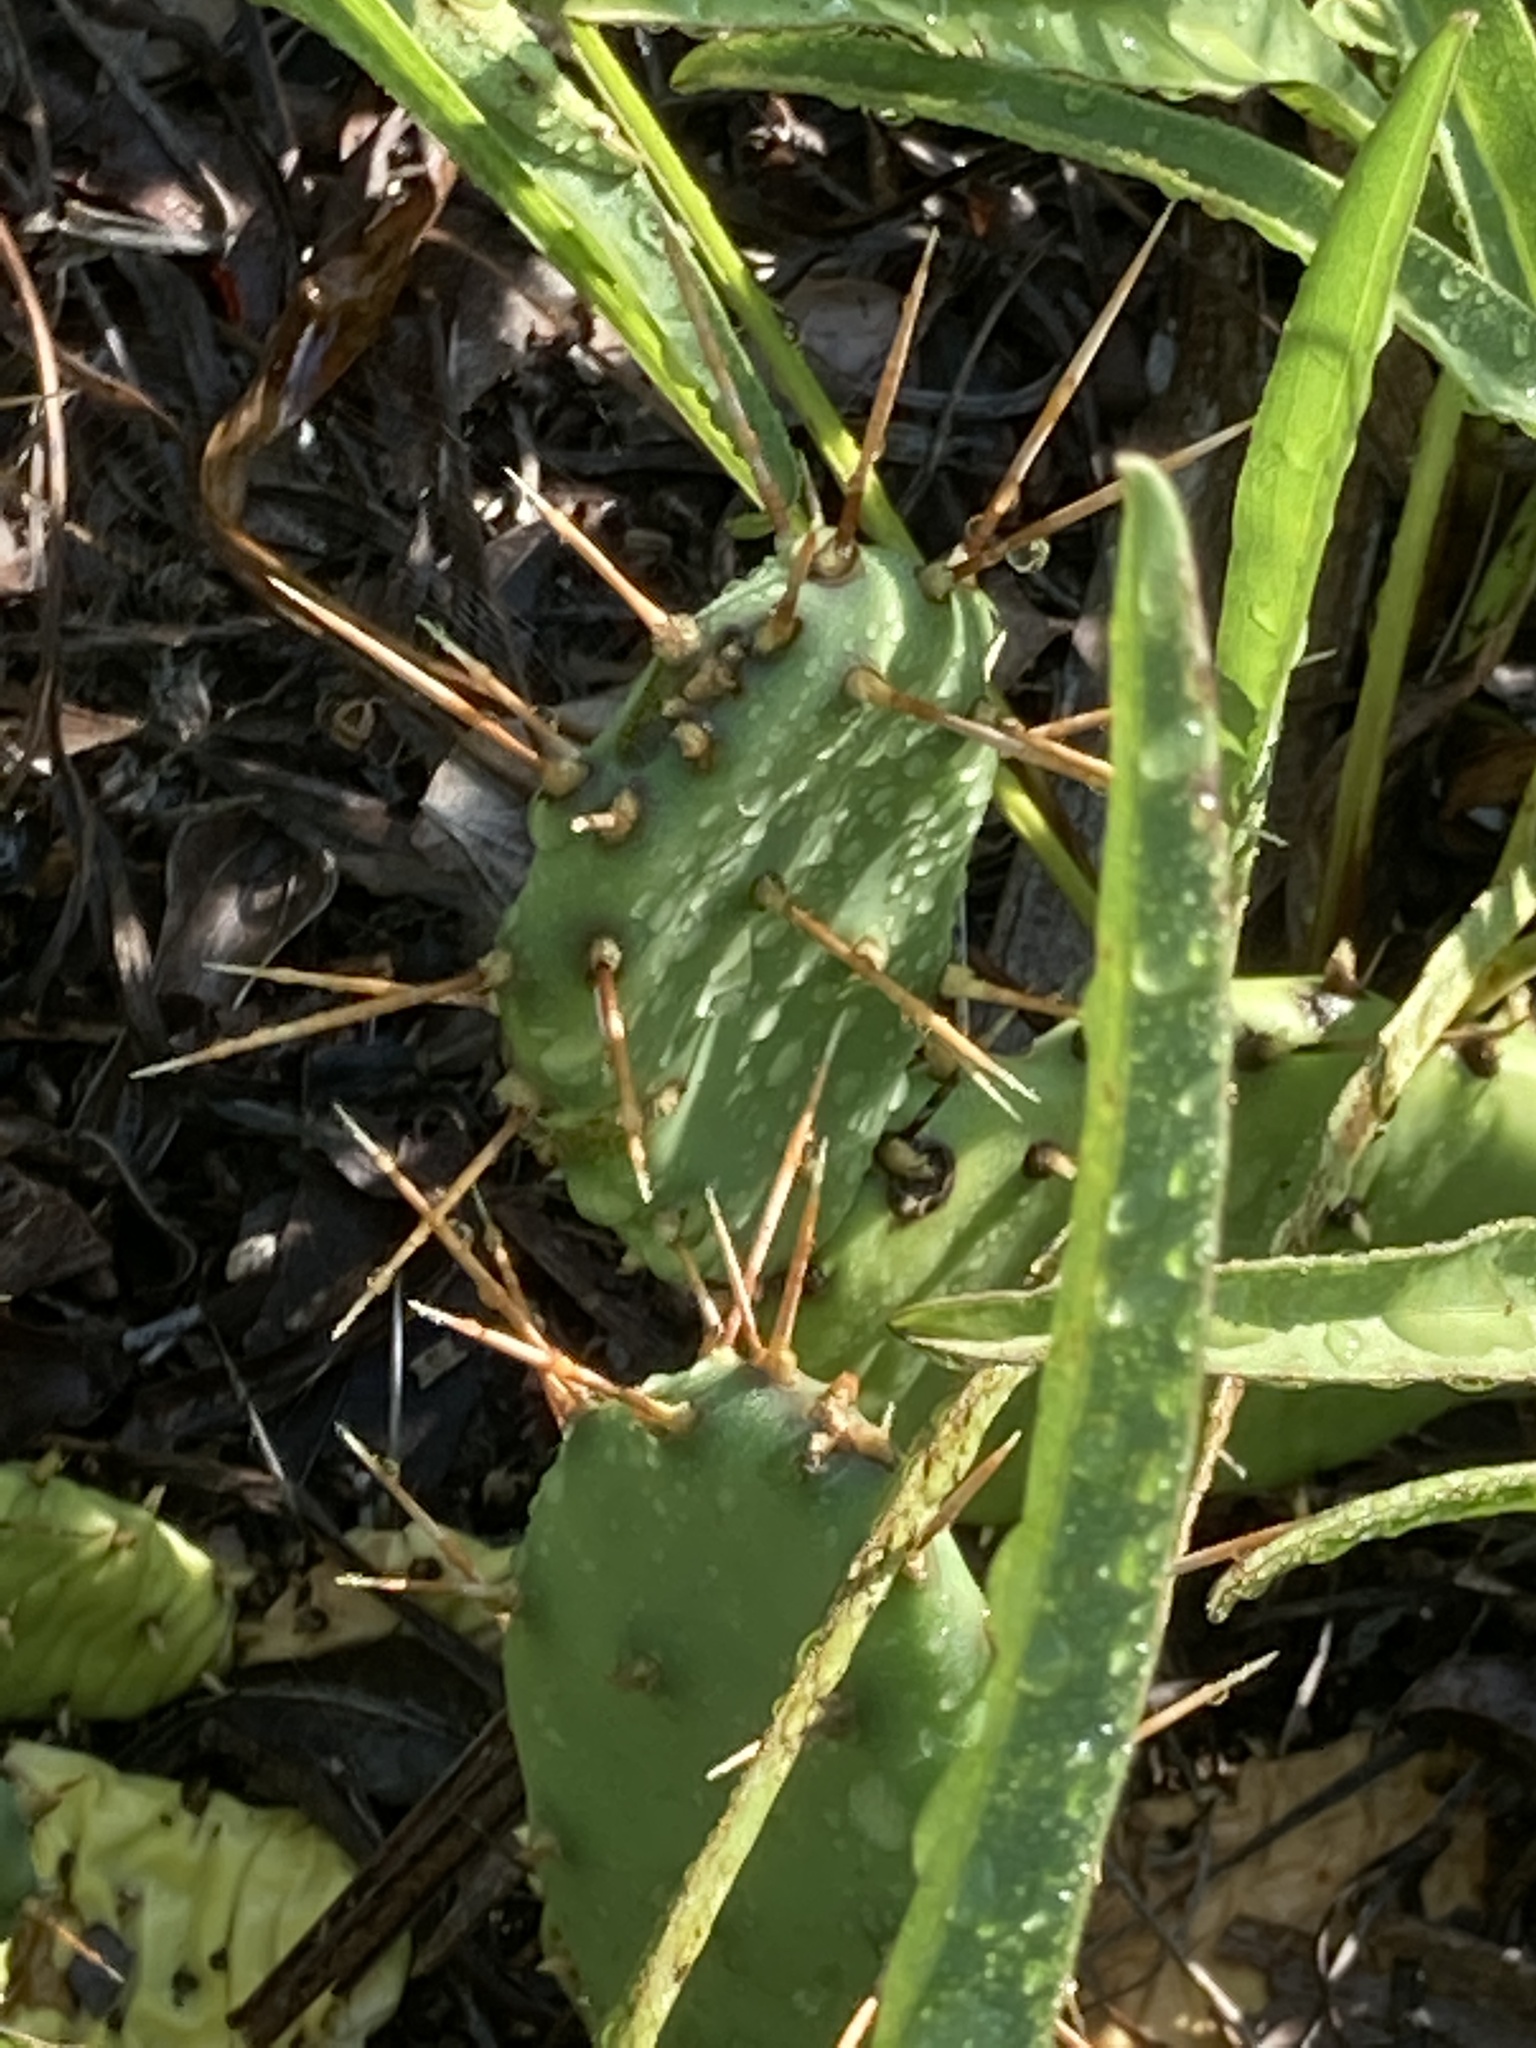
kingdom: Plantae
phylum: Tracheophyta
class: Magnoliopsida
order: Caryophyllales
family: Cactaceae
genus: Opuntia
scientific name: Opuntia mesacantha
